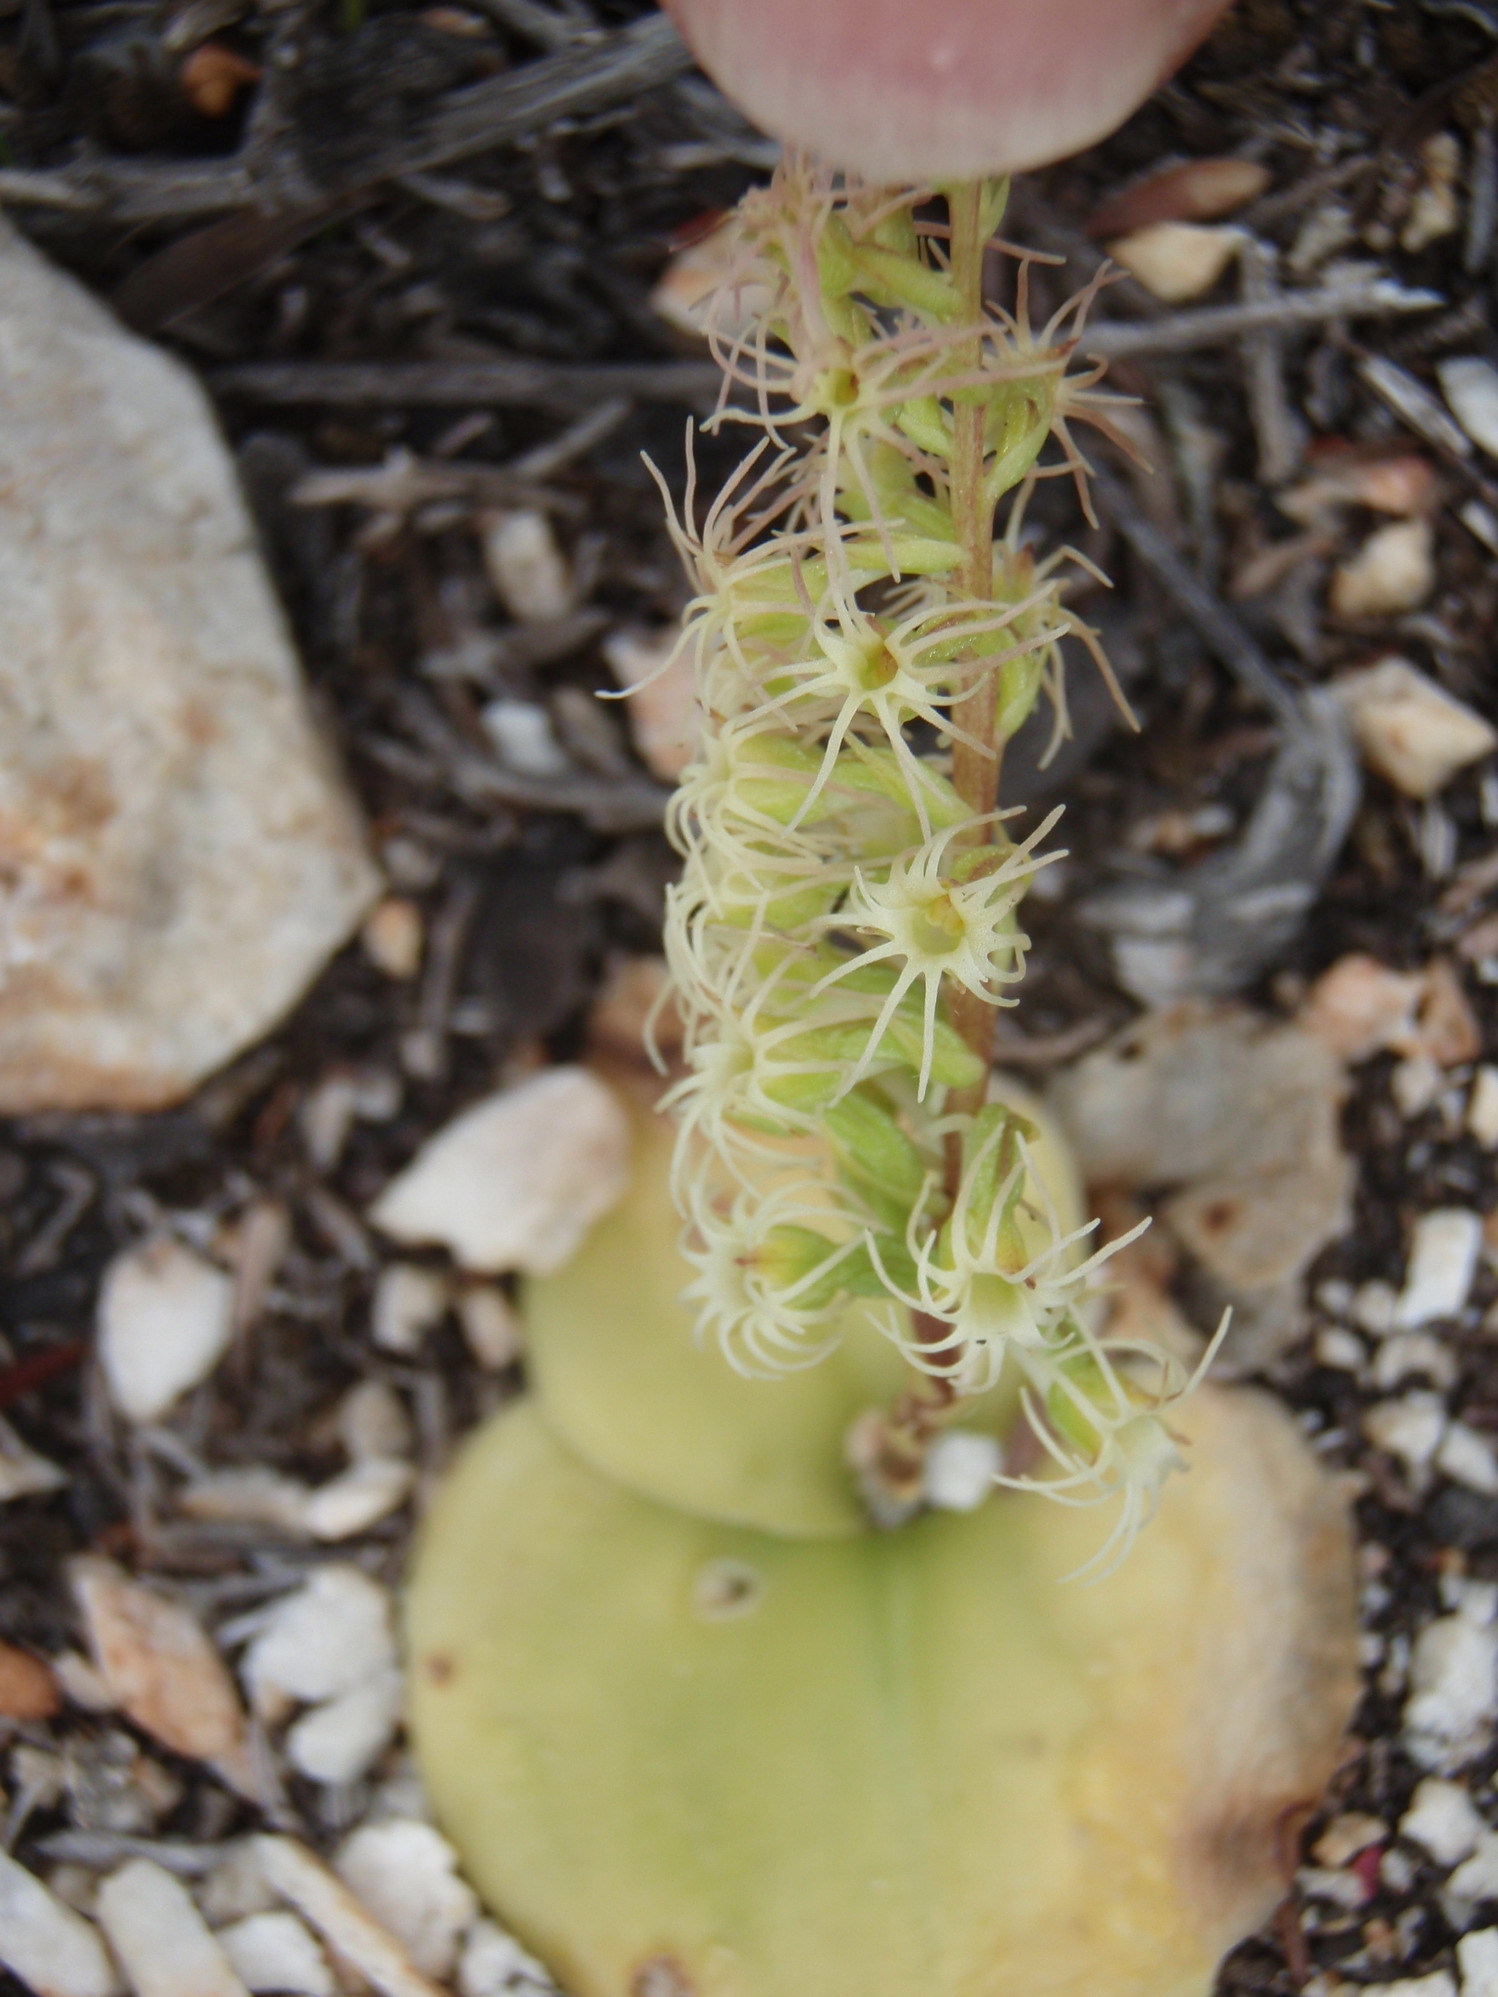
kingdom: Plantae
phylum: Tracheophyta
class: Liliopsida
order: Asparagales
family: Orchidaceae
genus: Holothrix
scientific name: Holothrix schlechteriana
